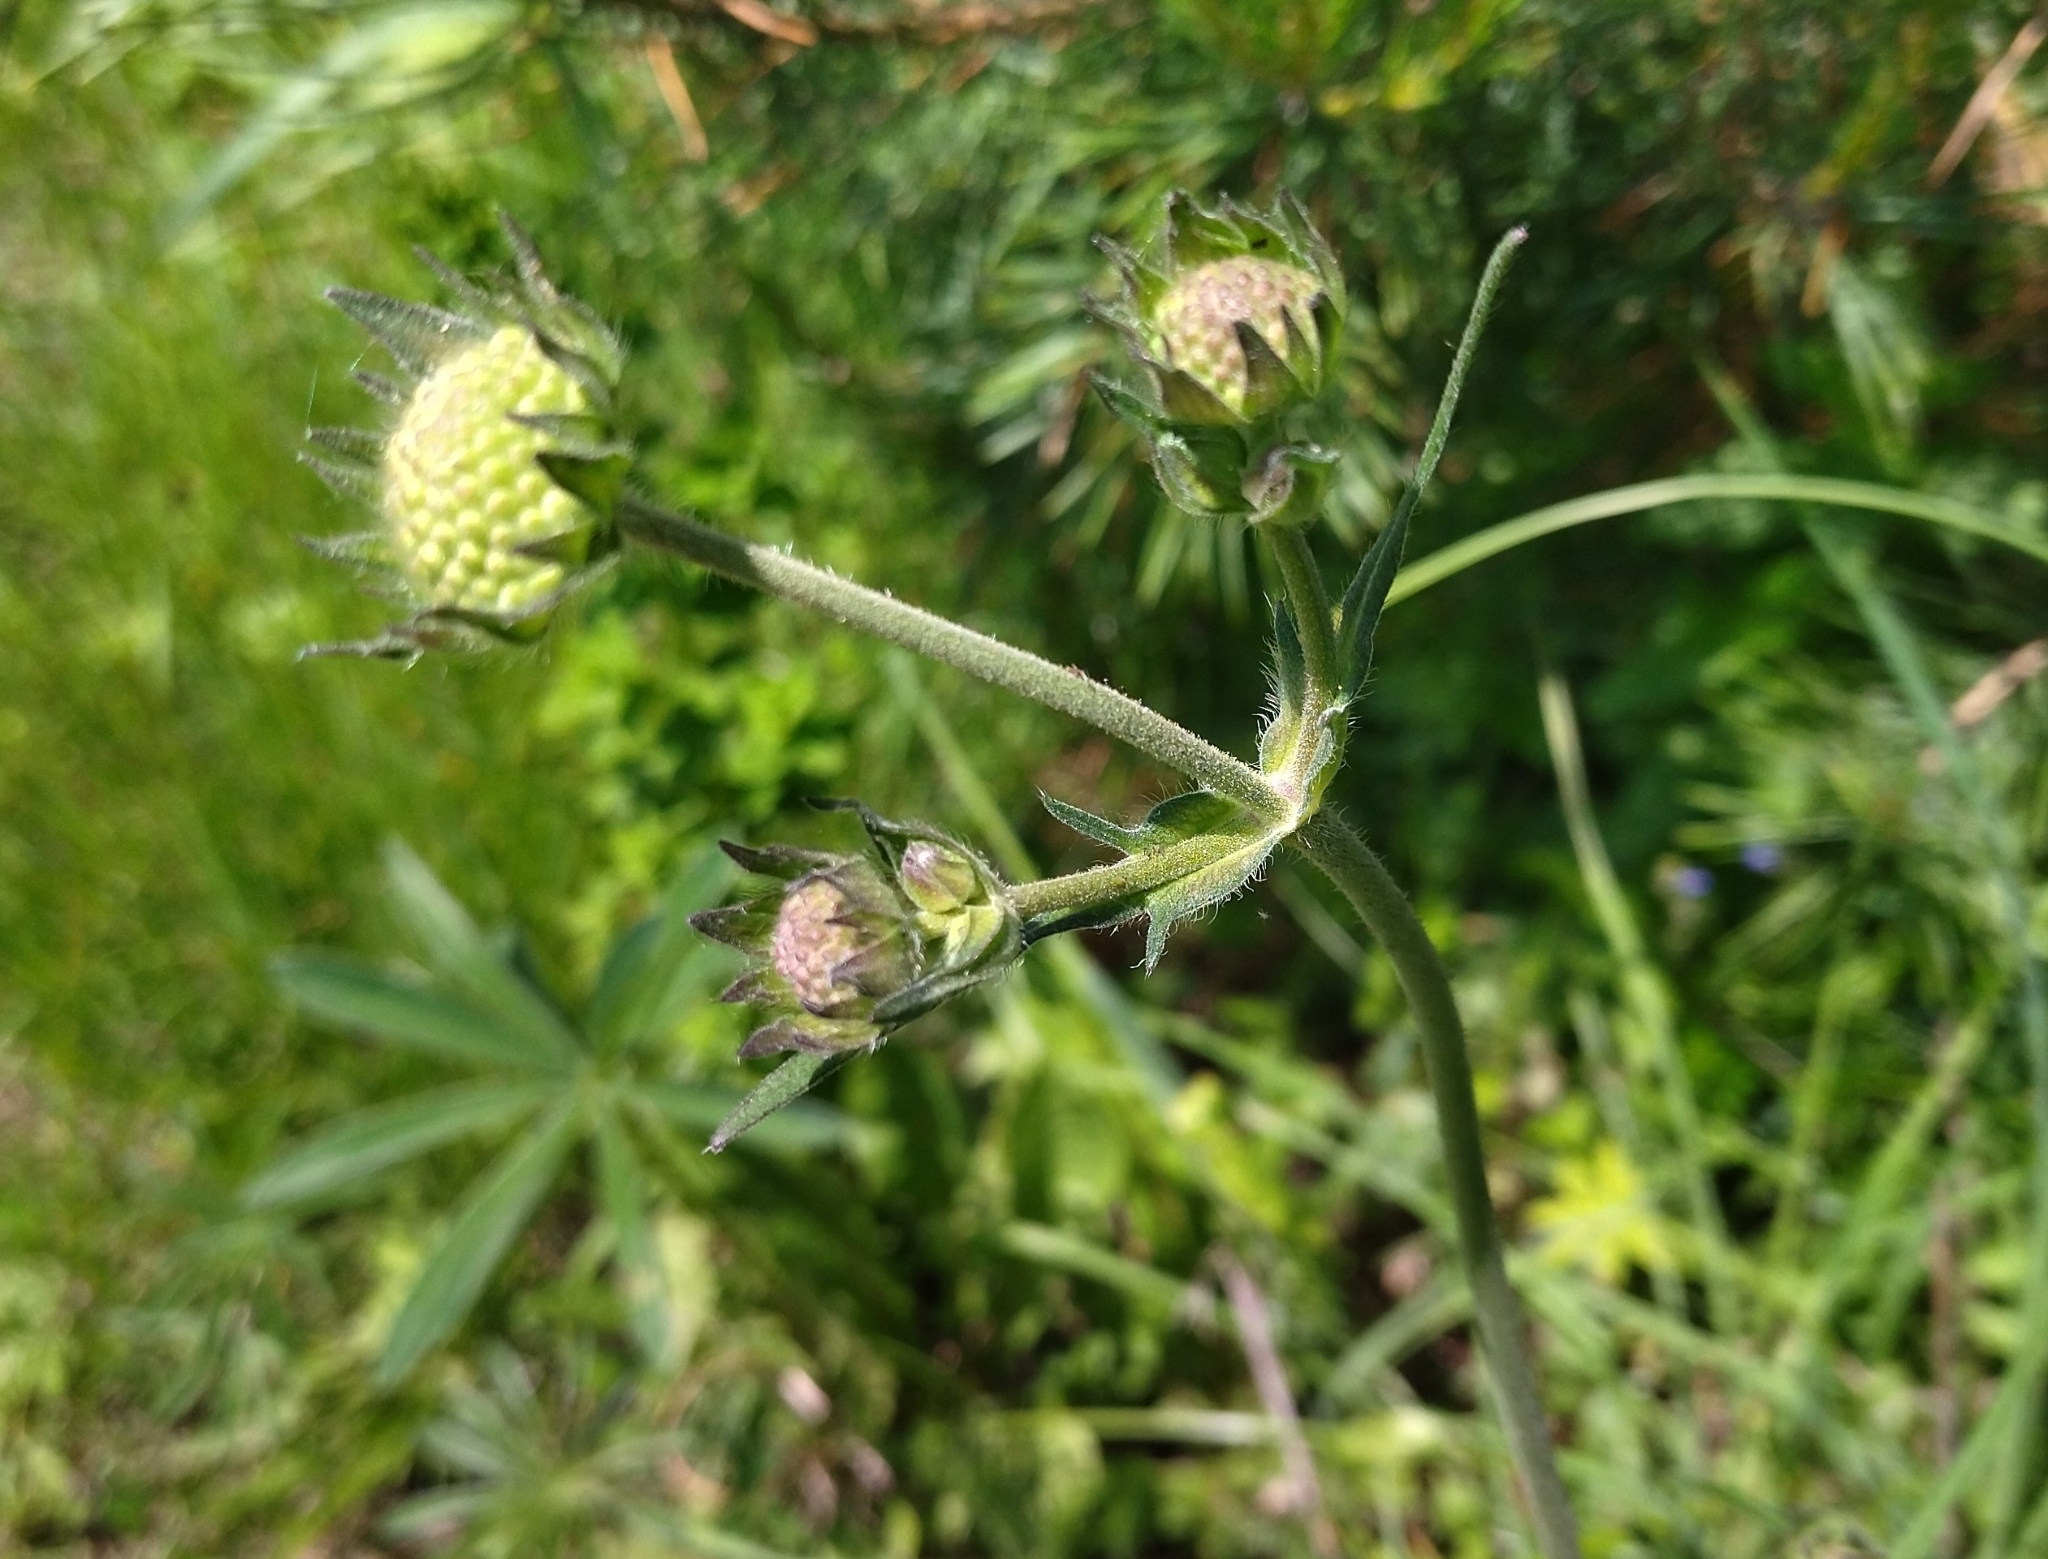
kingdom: Plantae
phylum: Tracheophyta
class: Magnoliopsida
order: Dipsacales
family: Caprifoliaceae
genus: Knautia
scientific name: Knautia arvensis
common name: Field scabiosa
